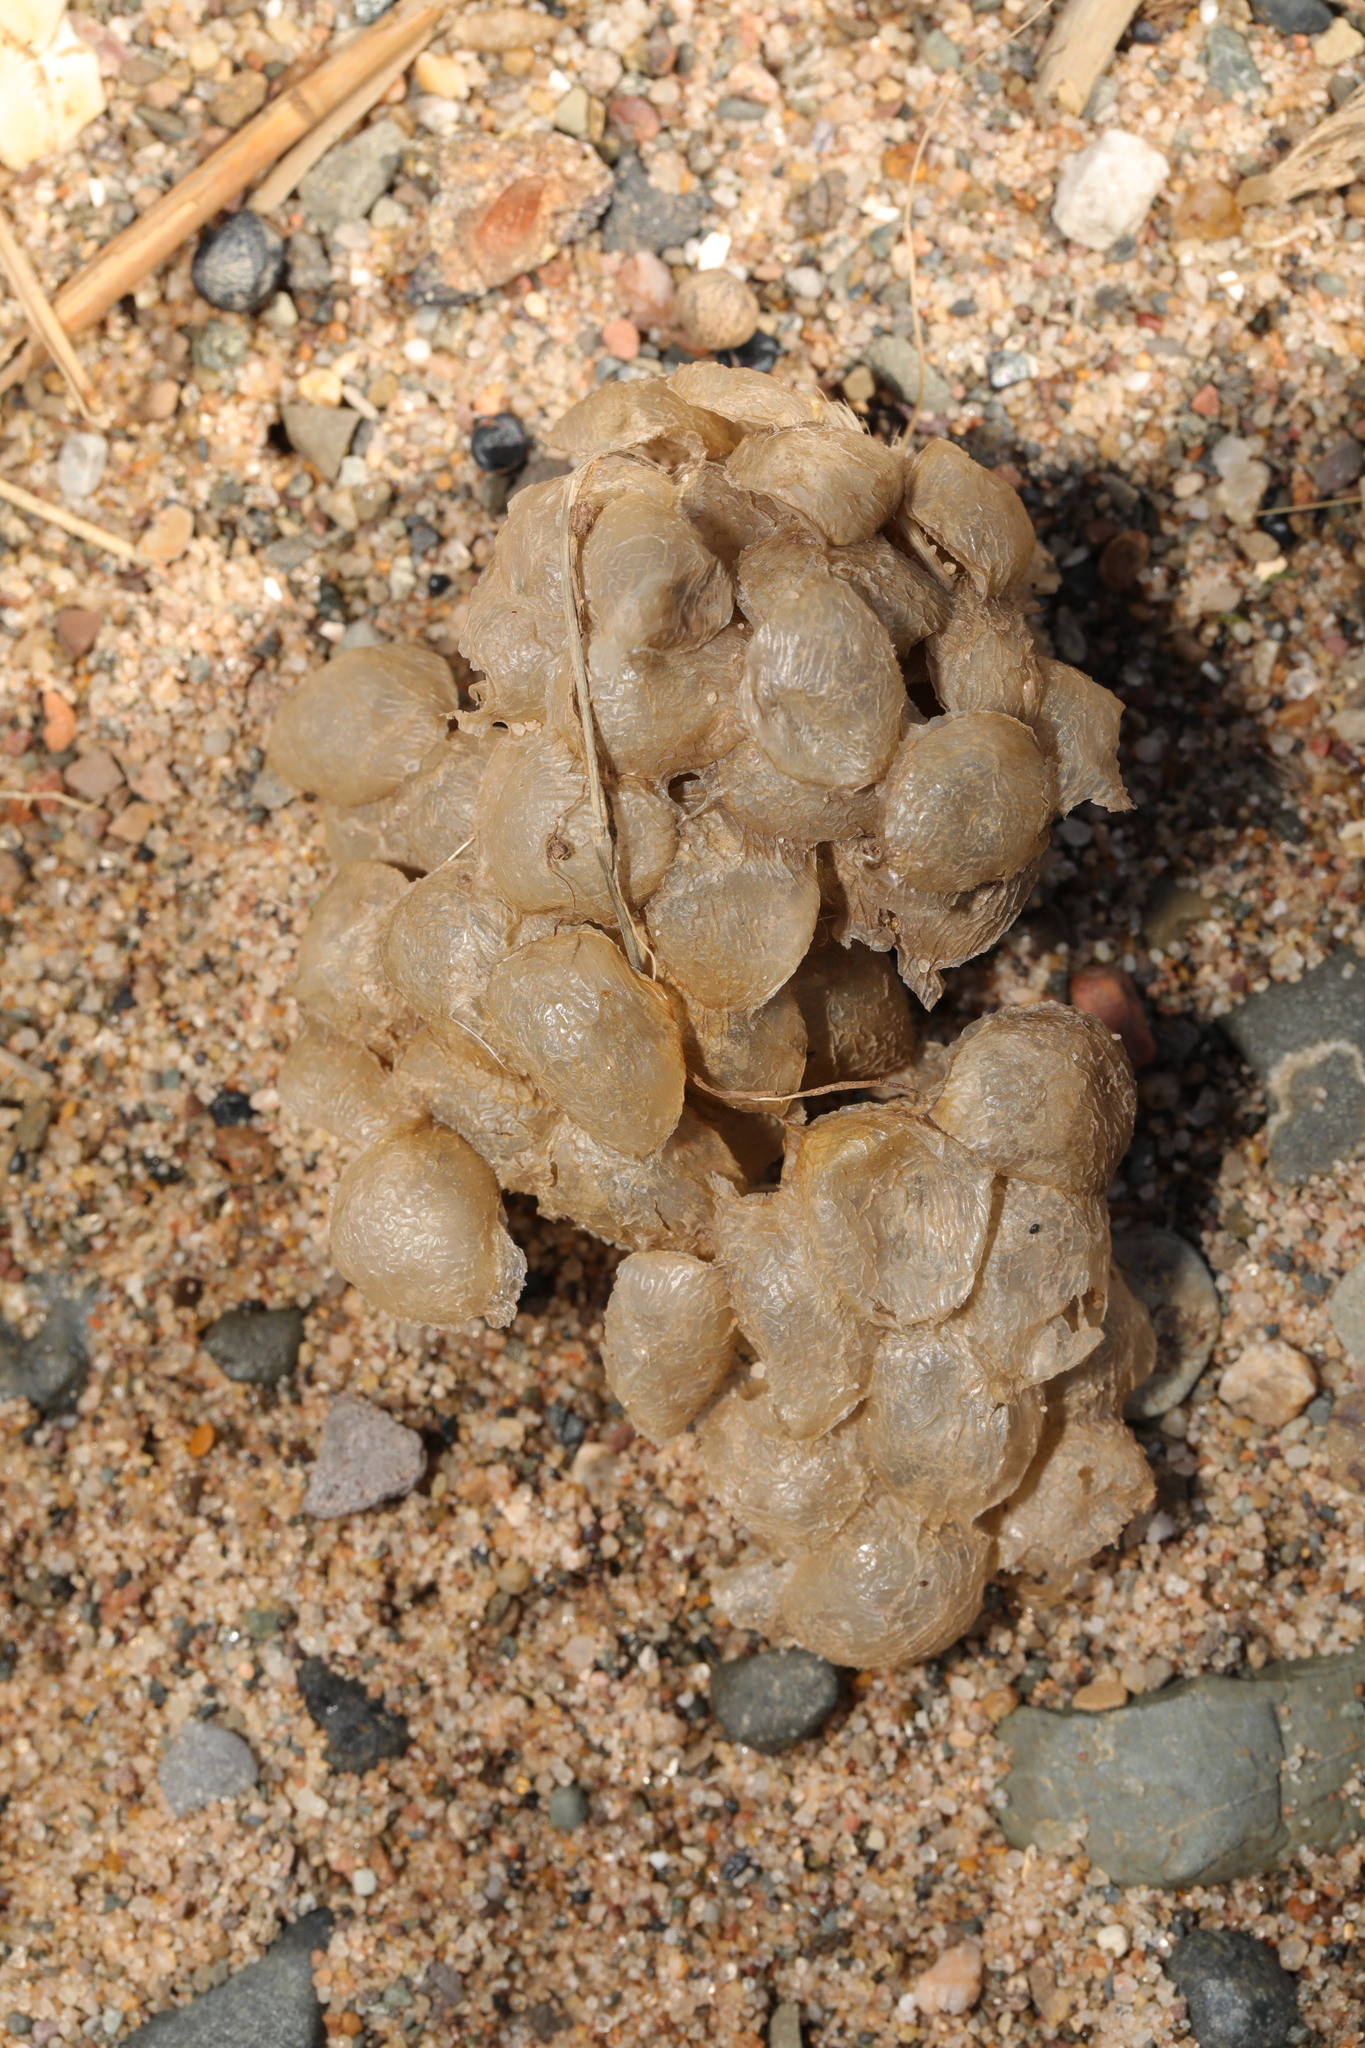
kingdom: Animalia
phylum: Mollusca
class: Gastropoda
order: Neogastropoda
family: Buccinidae
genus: Buccinum
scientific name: Buccinum undatum
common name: Common whelk
